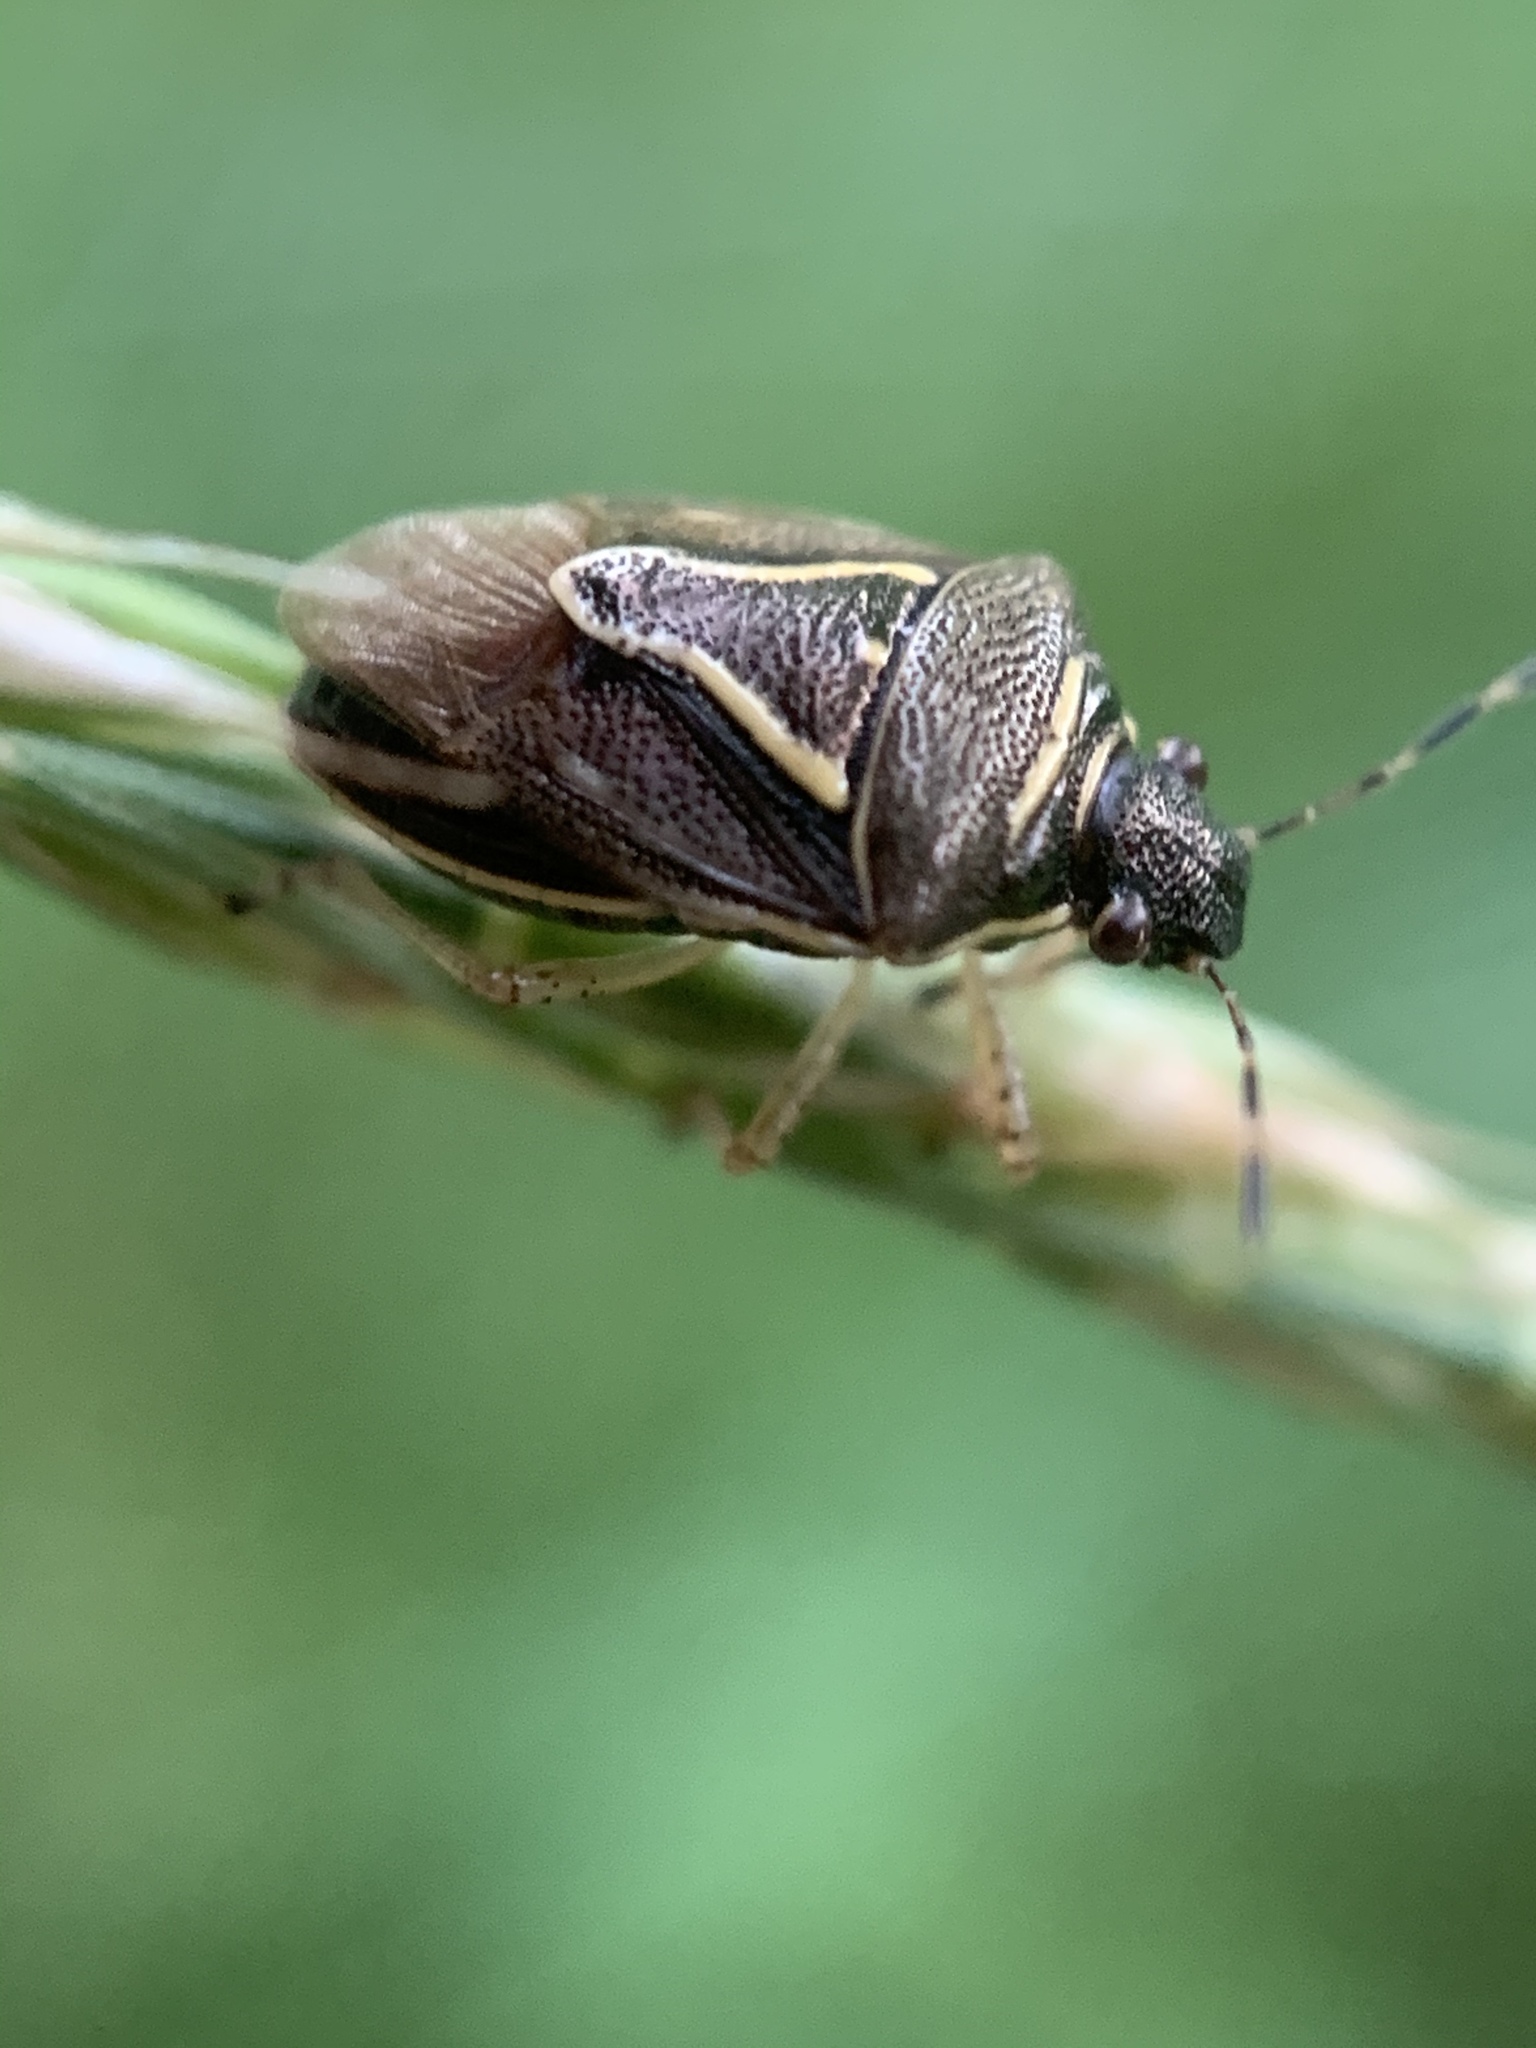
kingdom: Animalia
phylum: Arthropoda
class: Insecta
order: Hemiptera
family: Pentatomidae
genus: Mormidea
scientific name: Mormidea lugens
